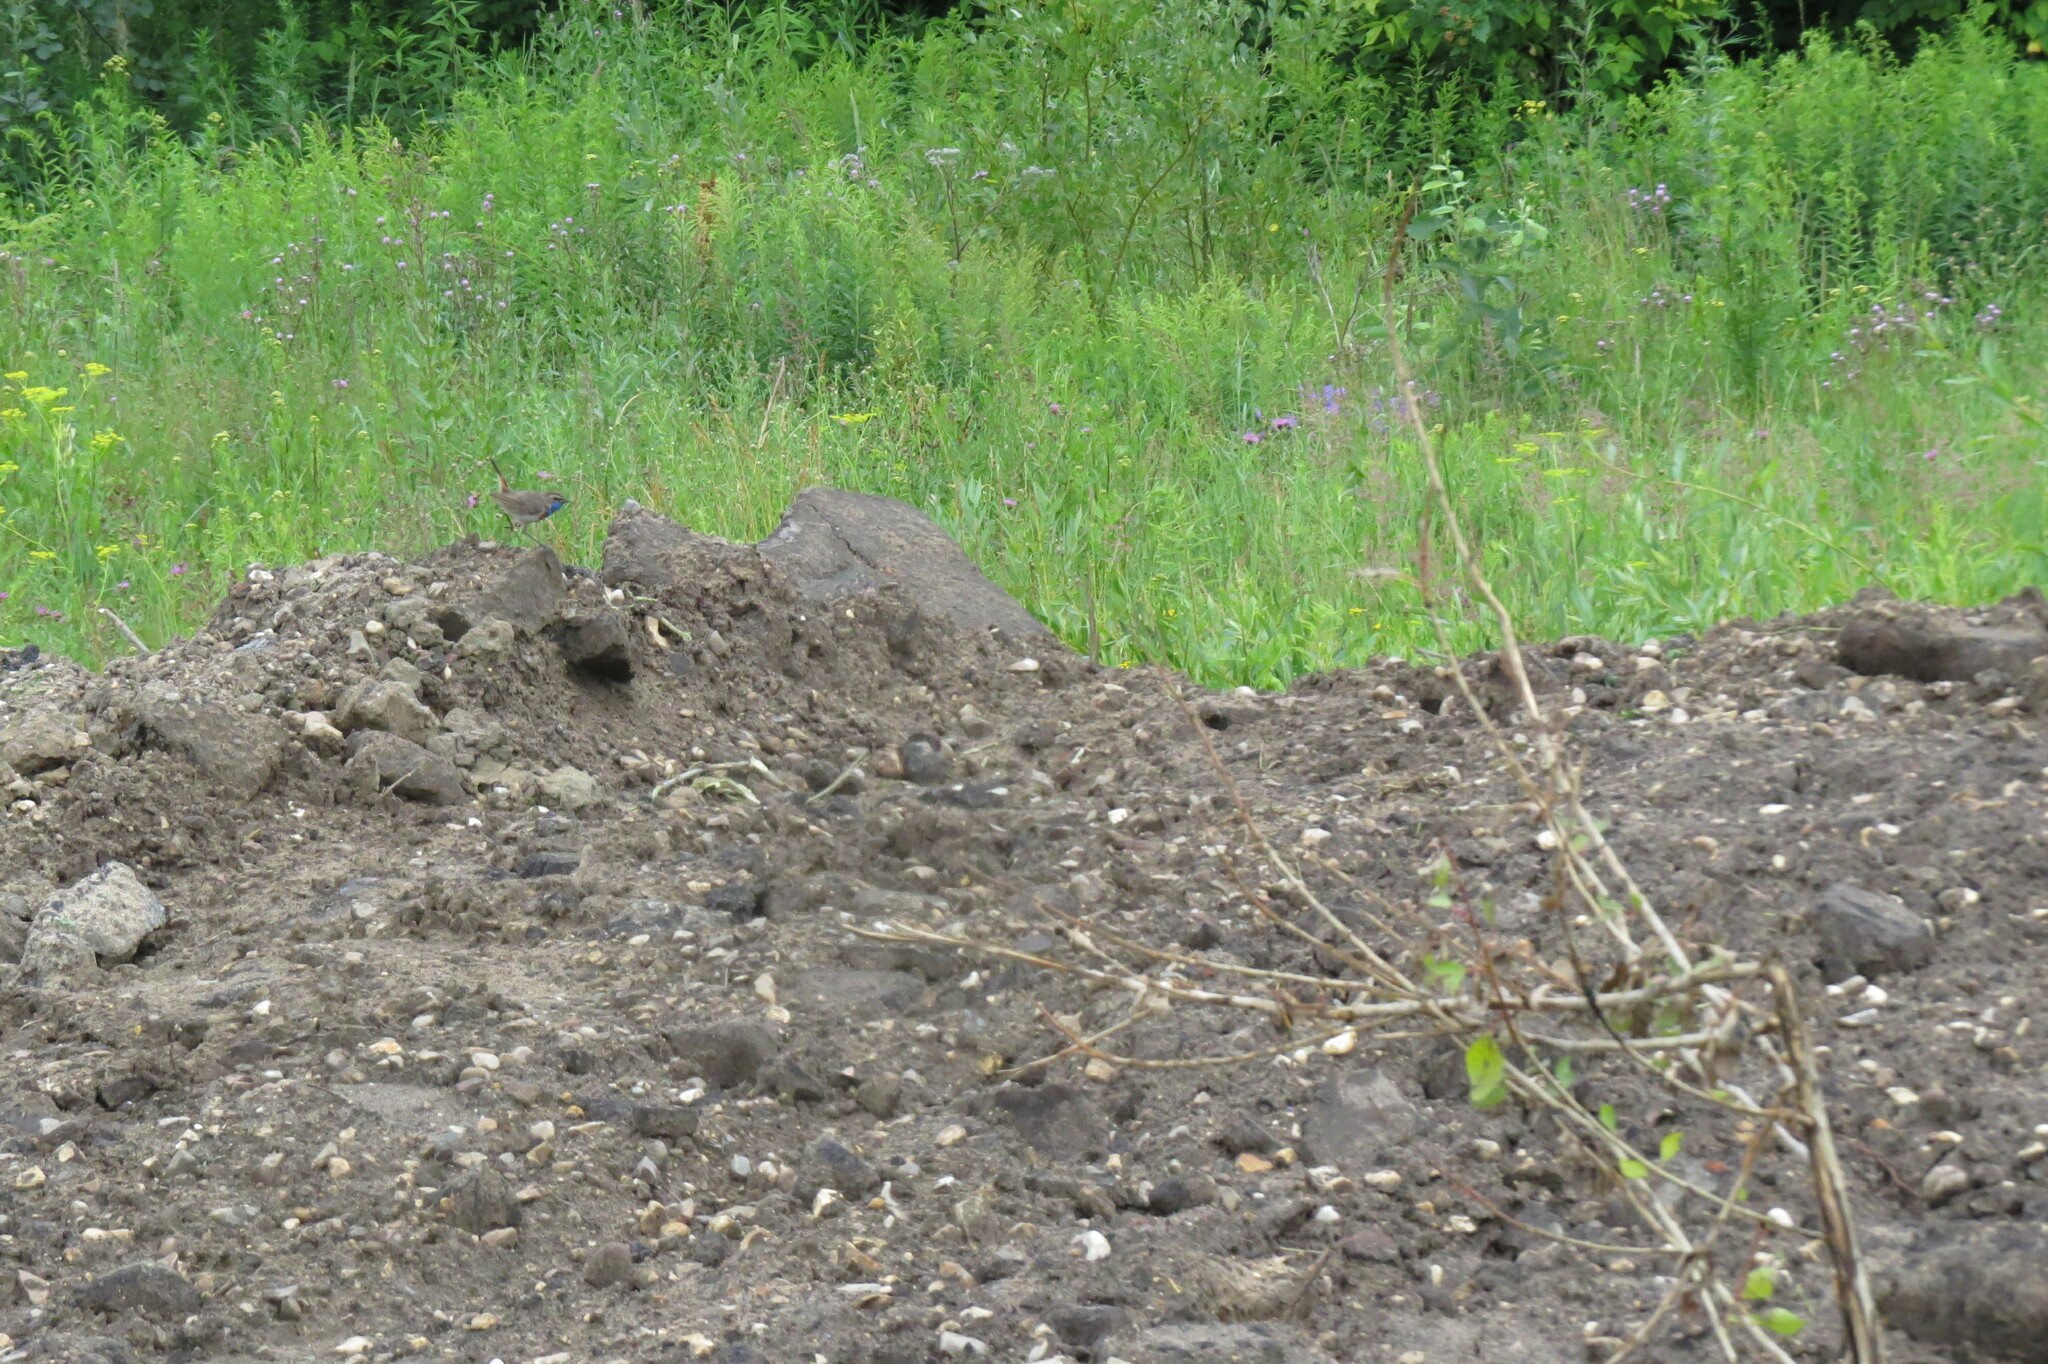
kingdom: Animalia
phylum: Chordata
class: Aves
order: Passeriformes
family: Muscicapidae
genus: Luscinia
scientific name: Luscinia svecica
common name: Bluethroat
